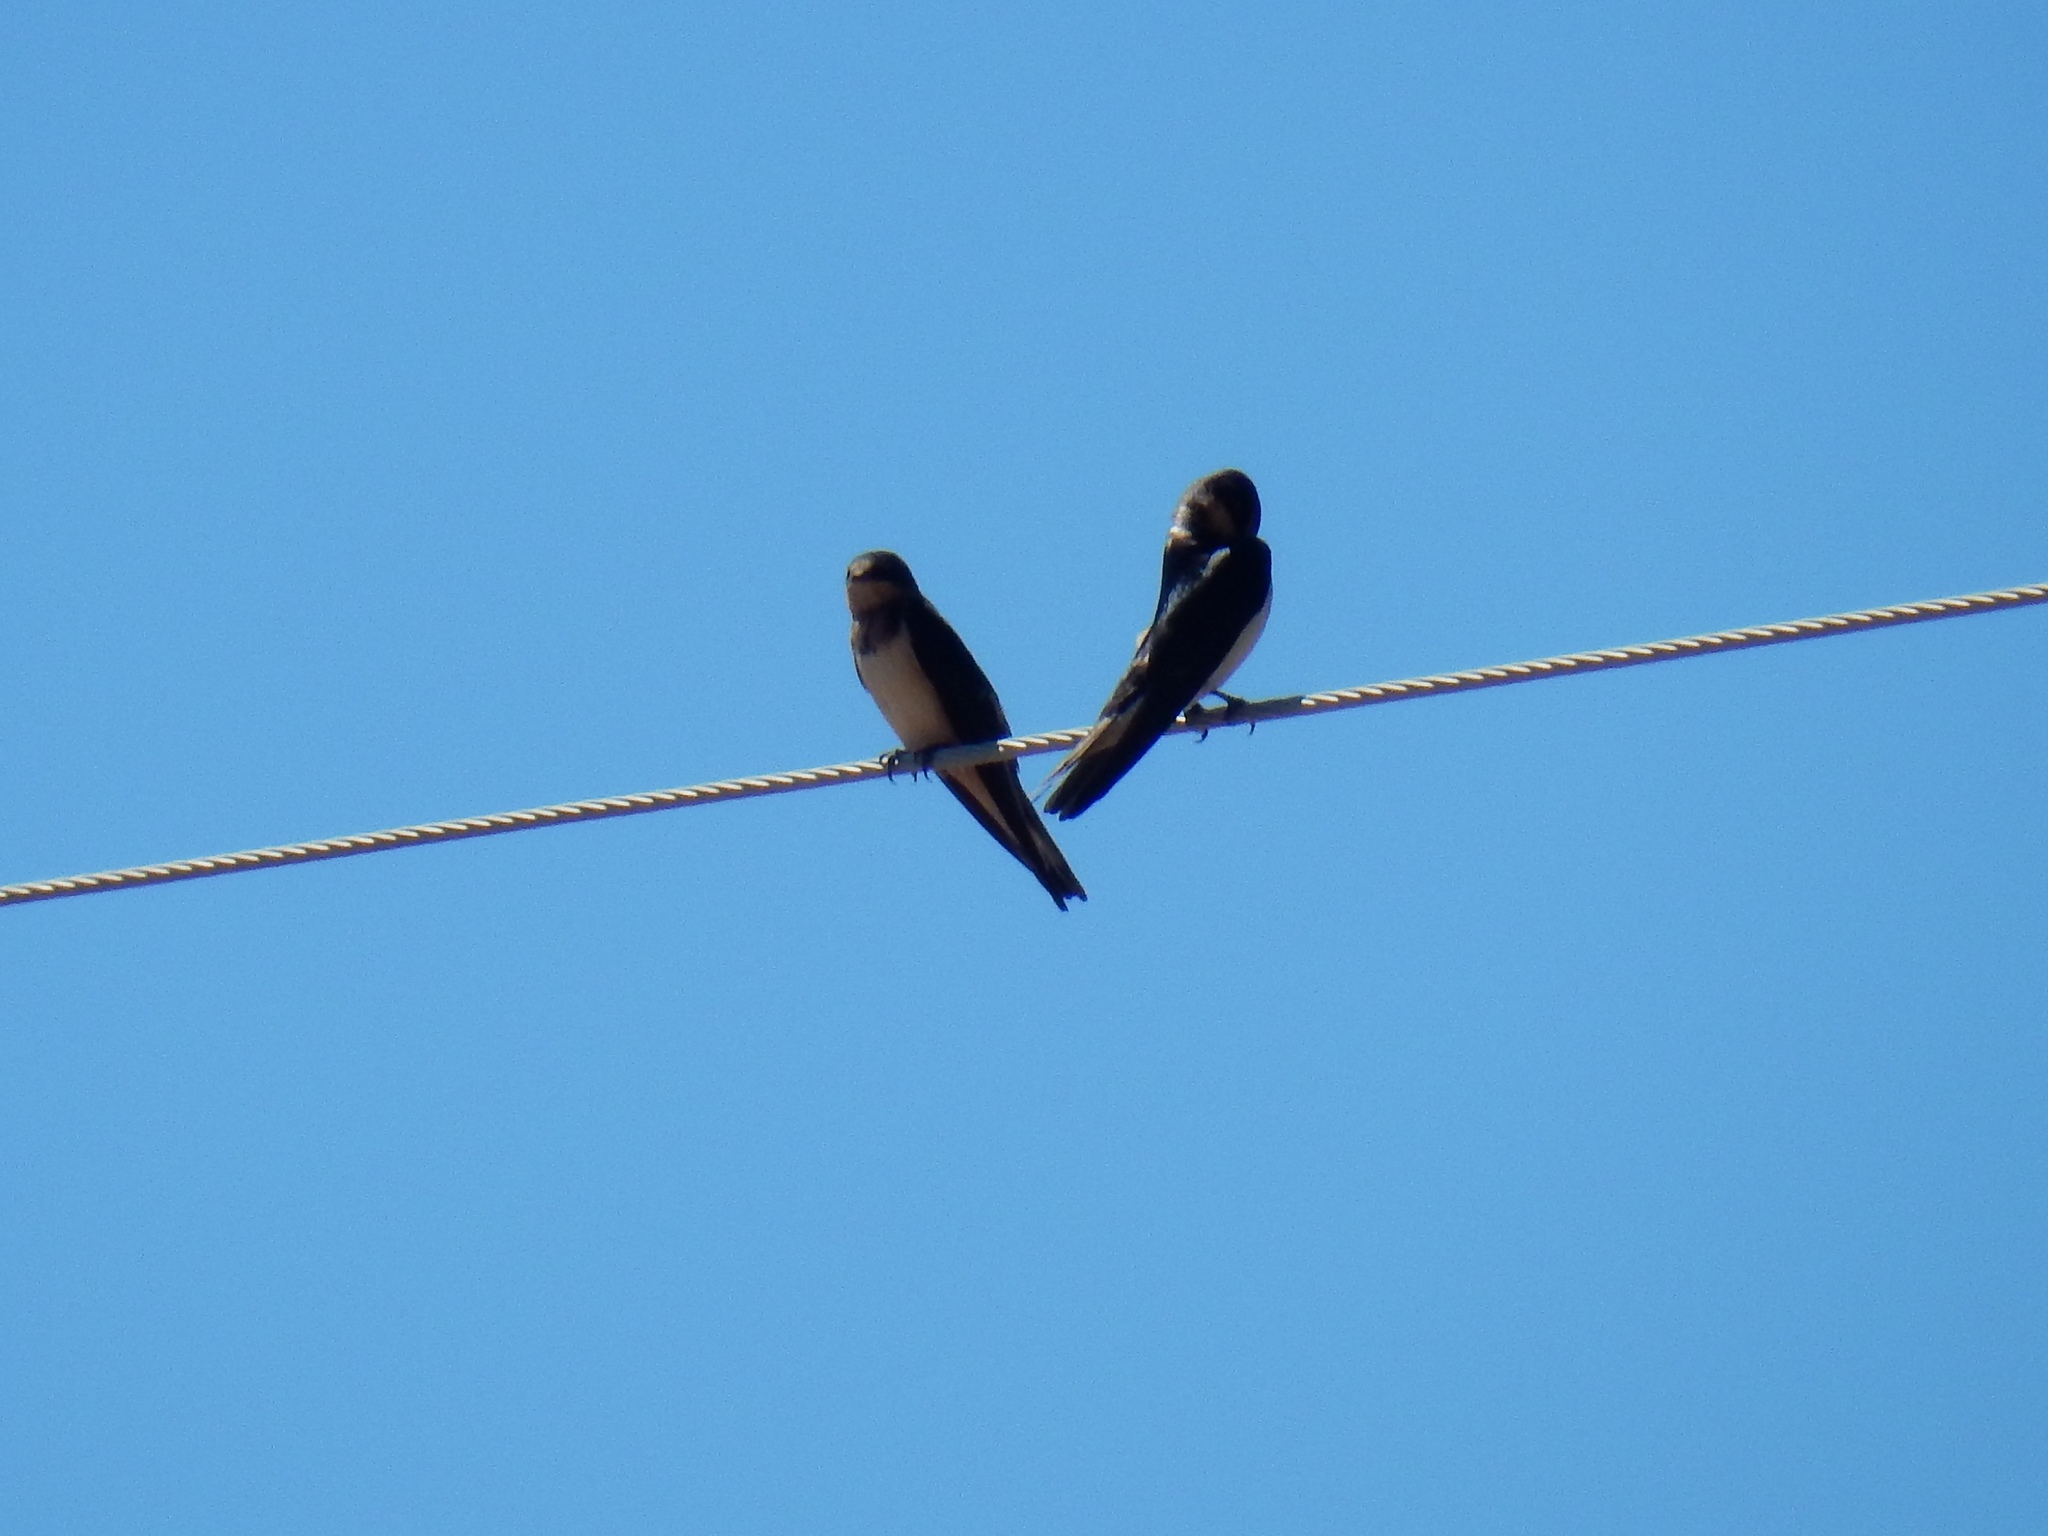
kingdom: Animalia
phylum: Chordata
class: Aves
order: Passeriformes
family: Hirundinidae
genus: Hirundo
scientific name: Hirundo rustica
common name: Barn swallow
